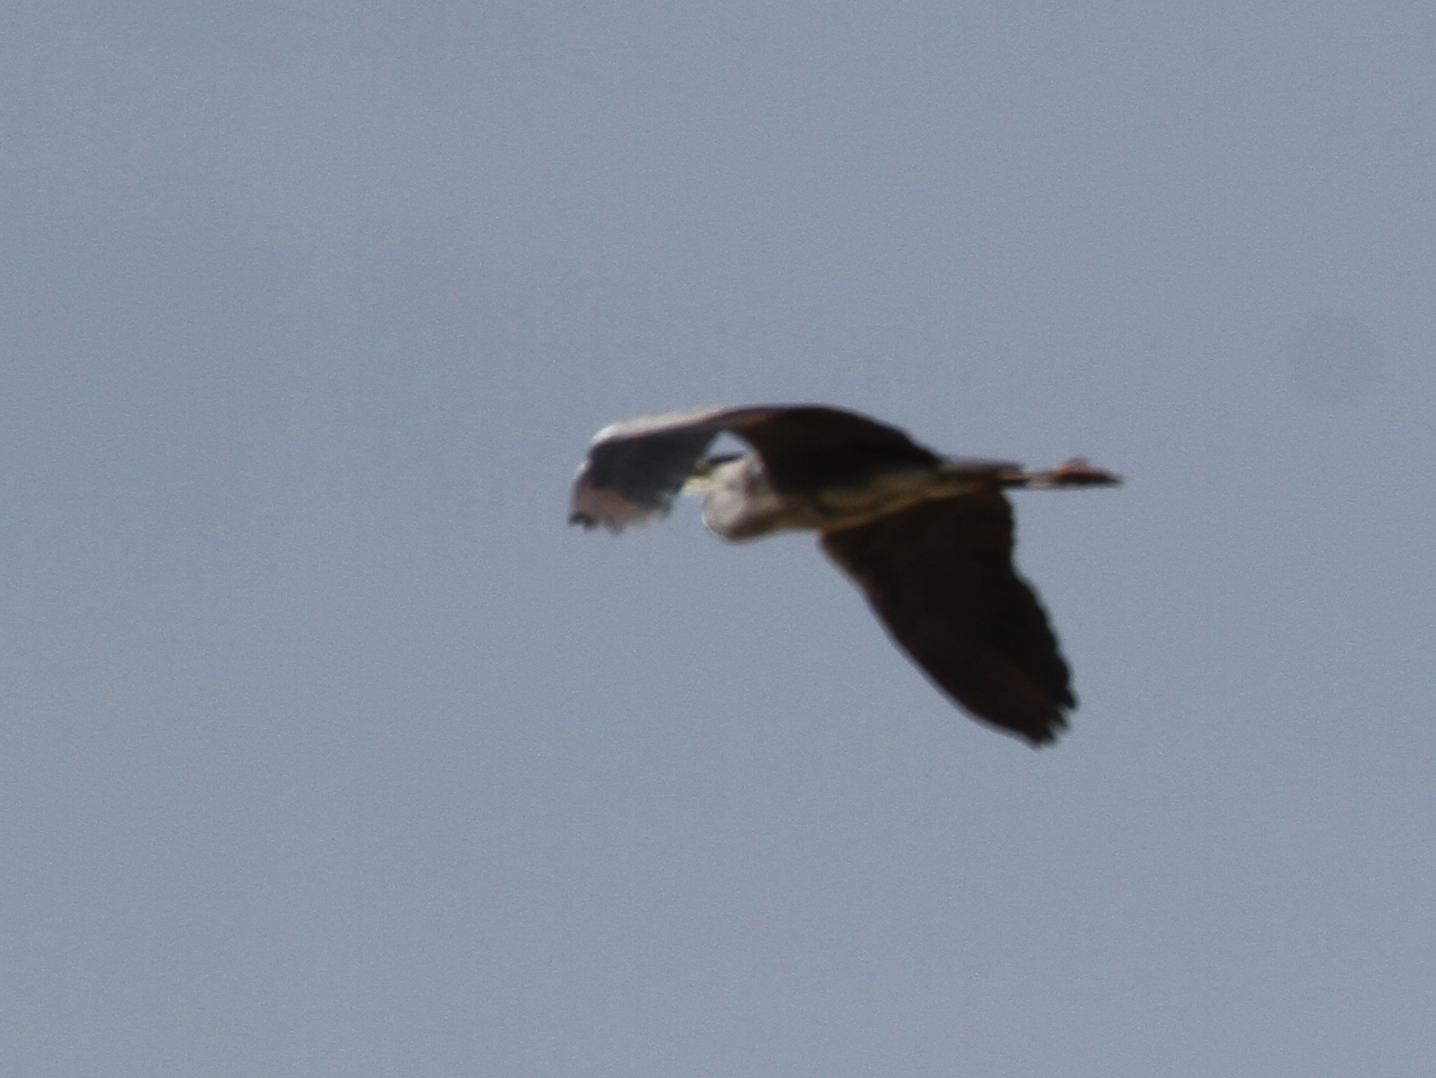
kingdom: Animalia
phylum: Chordata
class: Aves
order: Pelecaniformes
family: Ardeidae
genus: Ardea
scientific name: Ardea cinerea
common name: Grey heron
